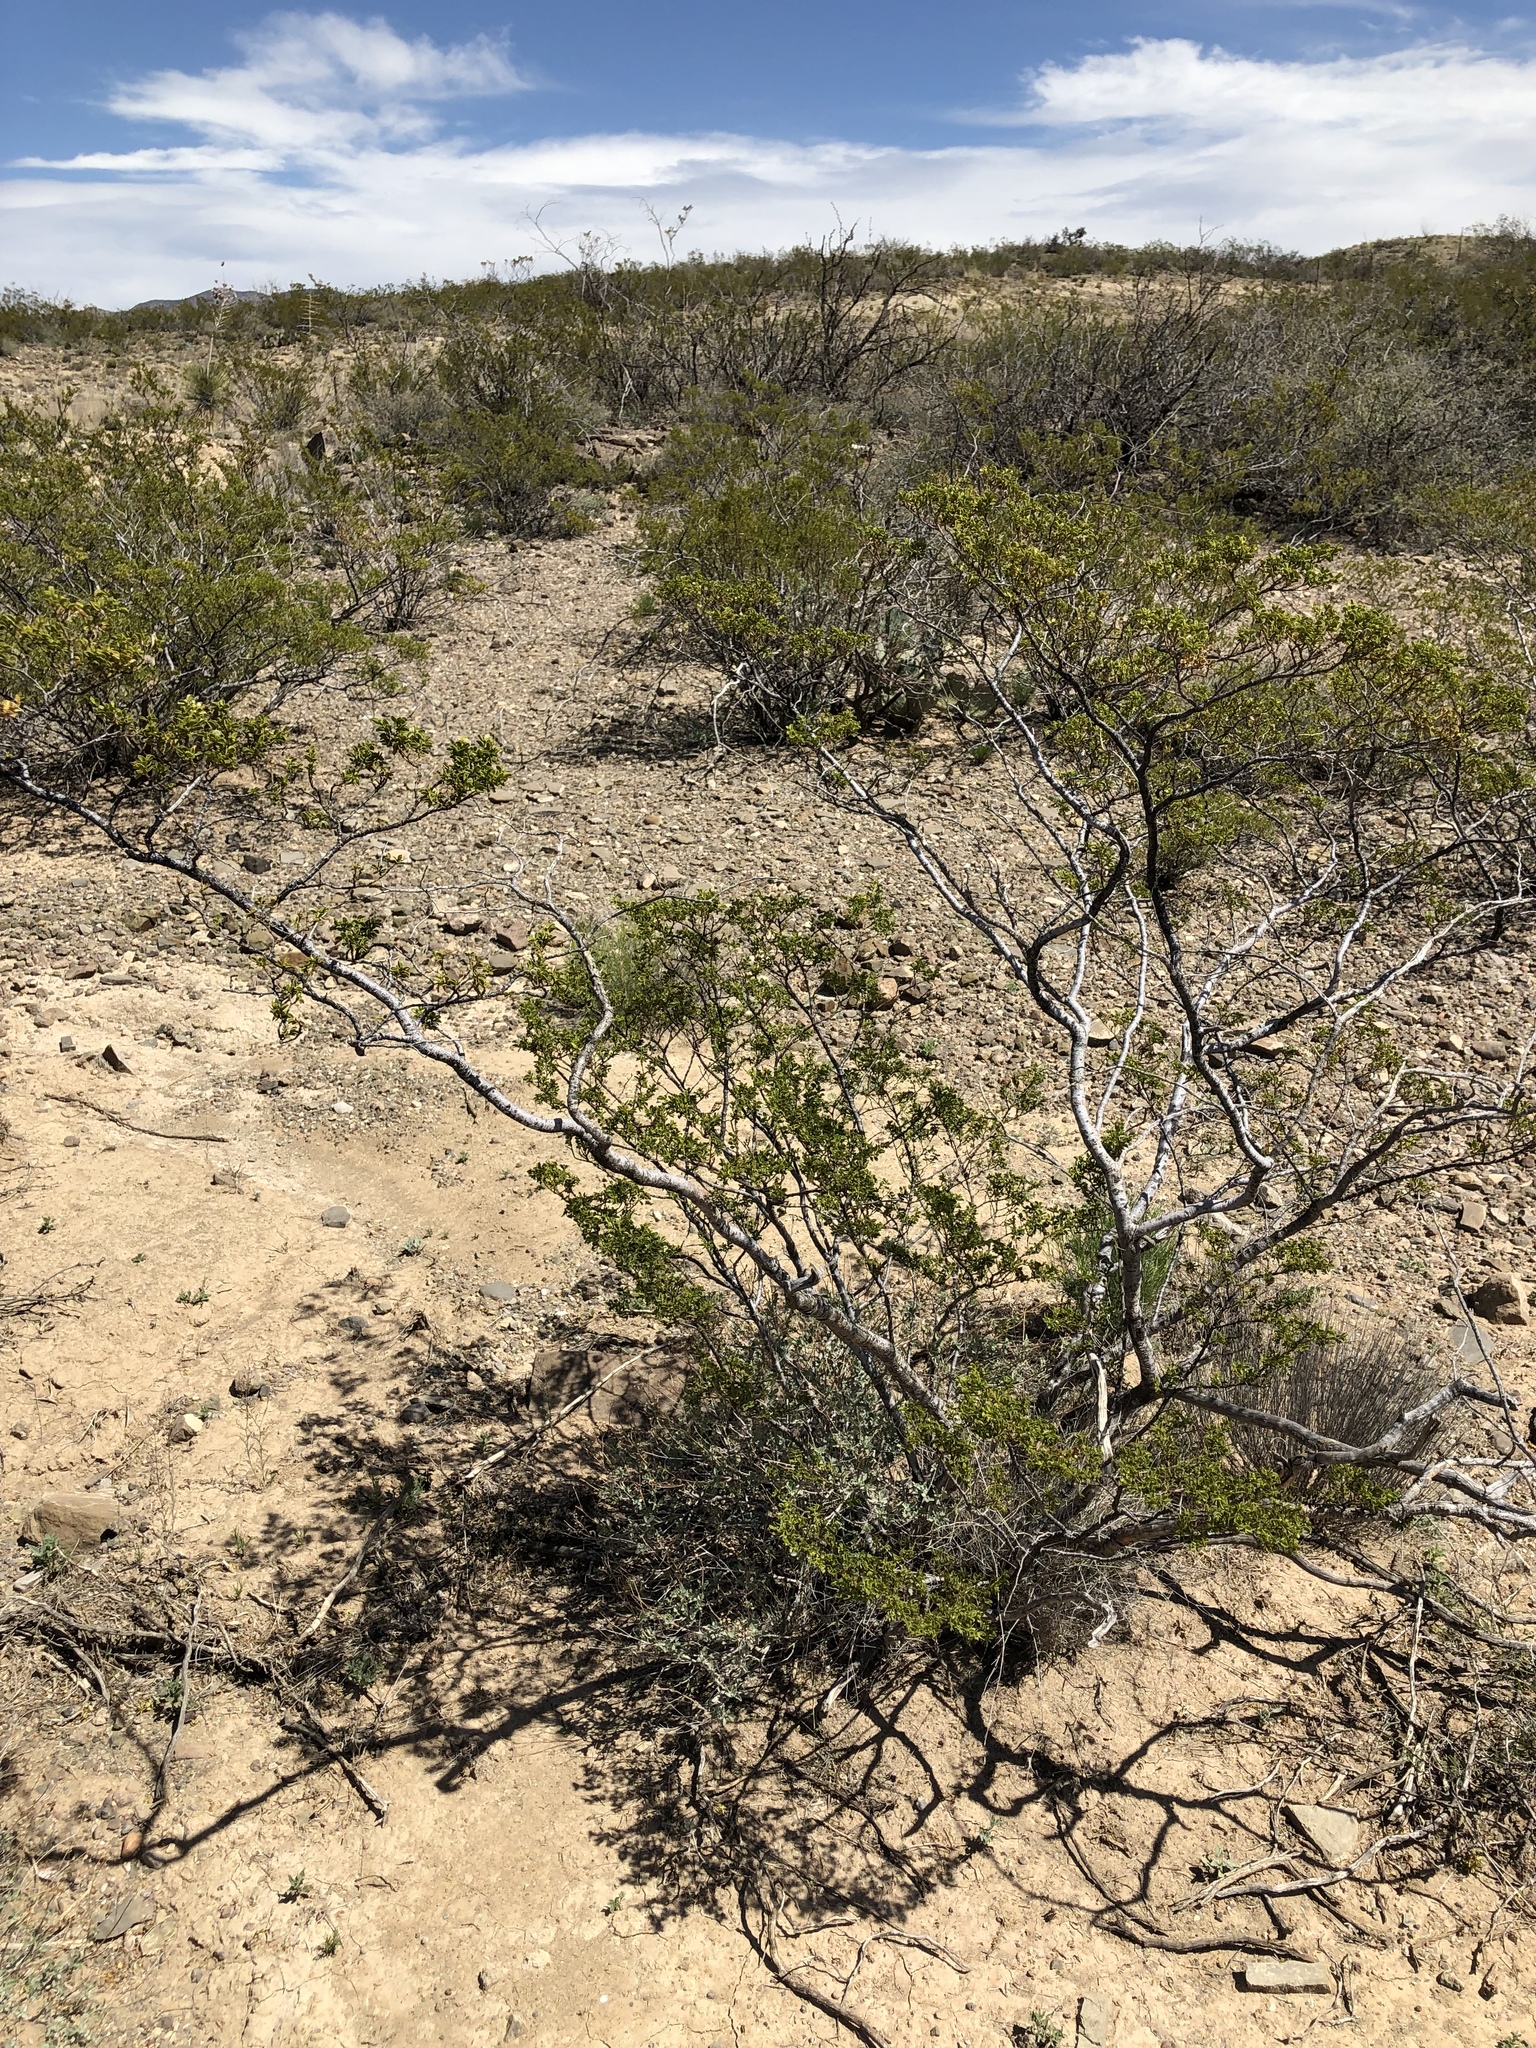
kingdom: Plantae
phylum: Tracheophyta
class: Magnoliopsida
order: Zygophyllales
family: Zygophyllaceae
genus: Larrea
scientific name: Larrea tridentata
